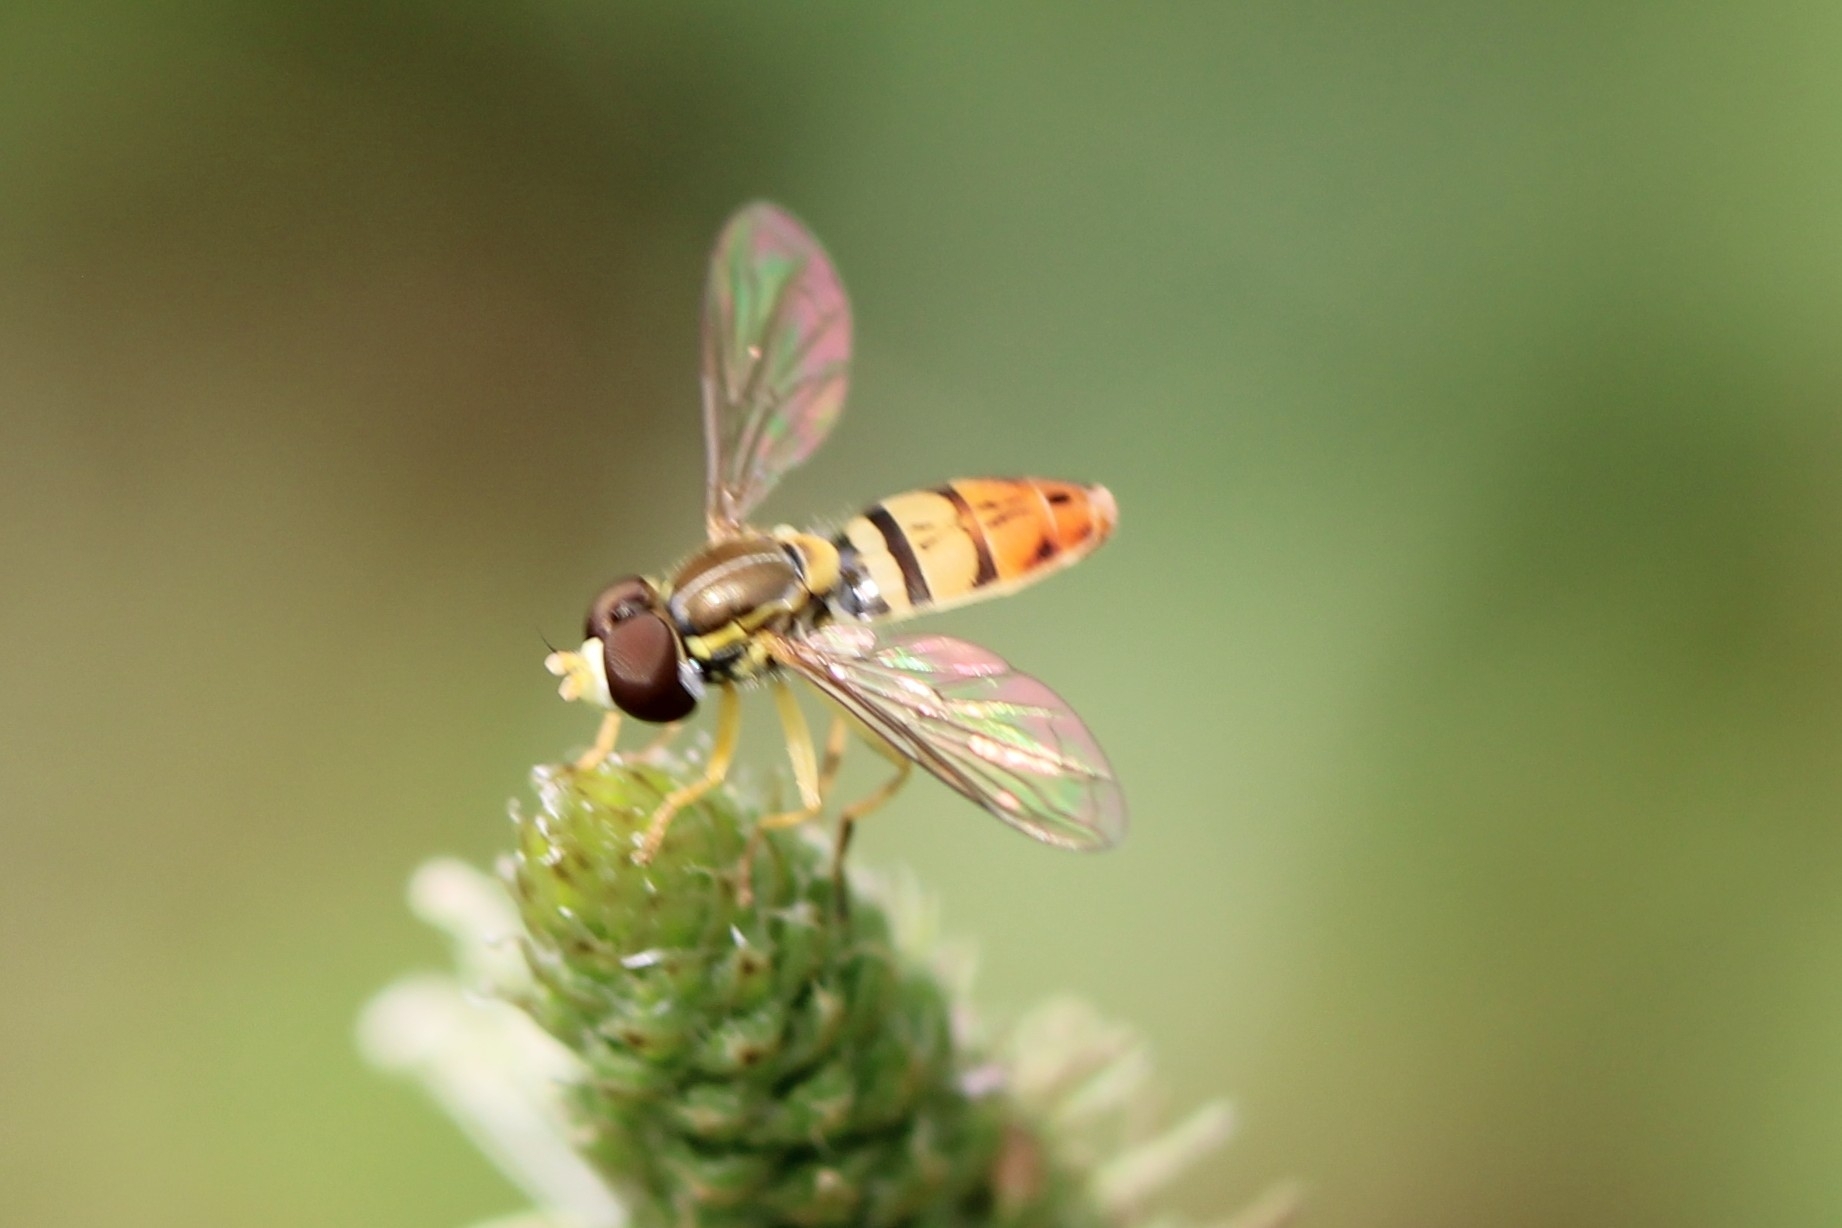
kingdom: Animalia
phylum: Arthropoda
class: Insecta
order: Diptera
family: Syrphidae
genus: Toxomerus
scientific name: Toxomerus marginatus
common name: Syrphid fly
